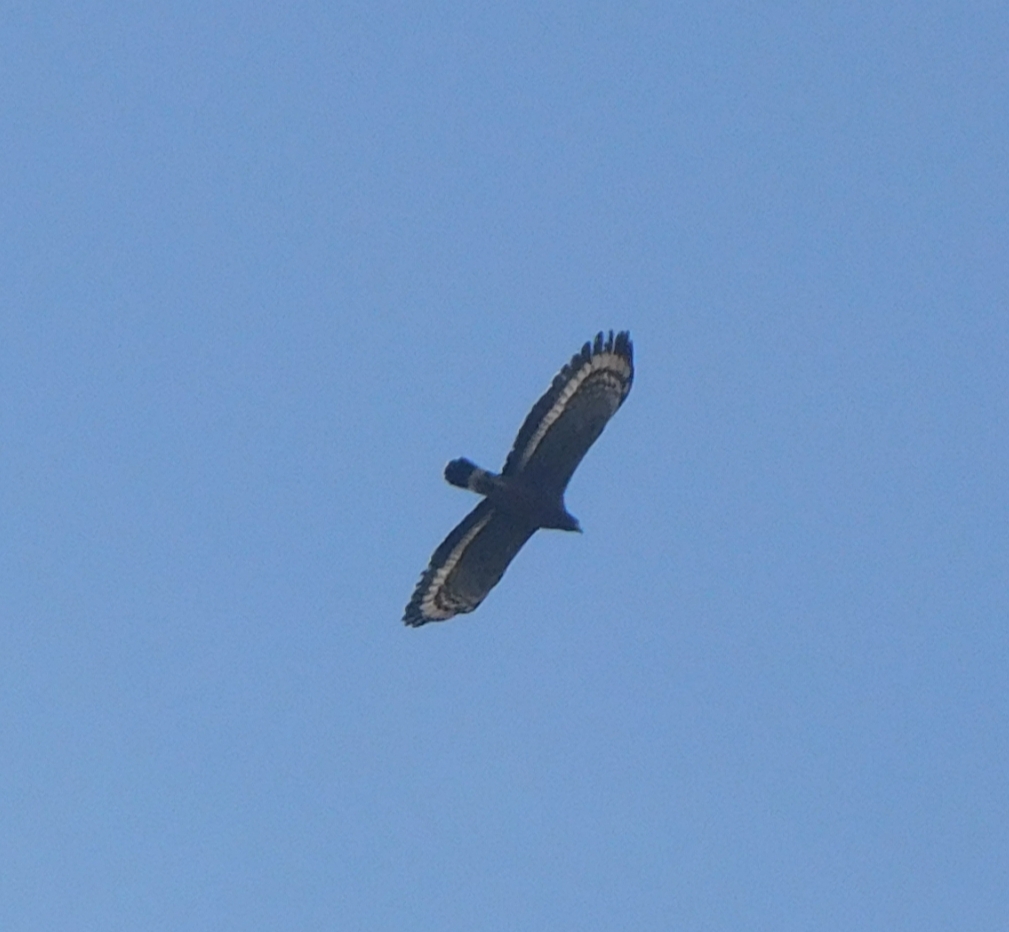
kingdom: Animalia
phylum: Chordata
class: Aves
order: Accipitriformes
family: Accipitridae
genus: Spilornis
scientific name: Spilornis cheela
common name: Crested serpent eagle
